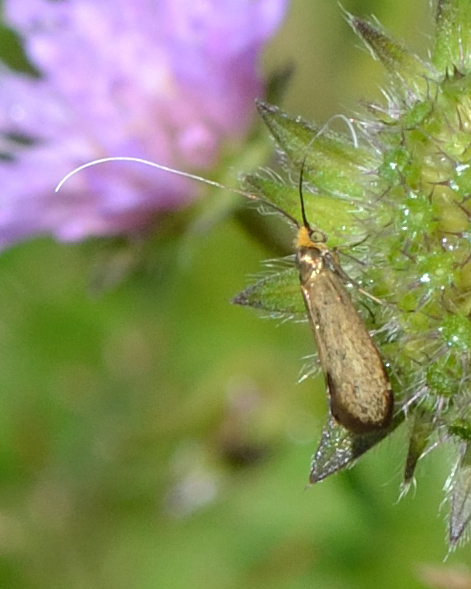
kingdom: Animalia
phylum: Arthropoda
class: Insecta
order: Lepidoptera
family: Adelidae
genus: Nemophora
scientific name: Nemophora metallica
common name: Brassy long-horn
